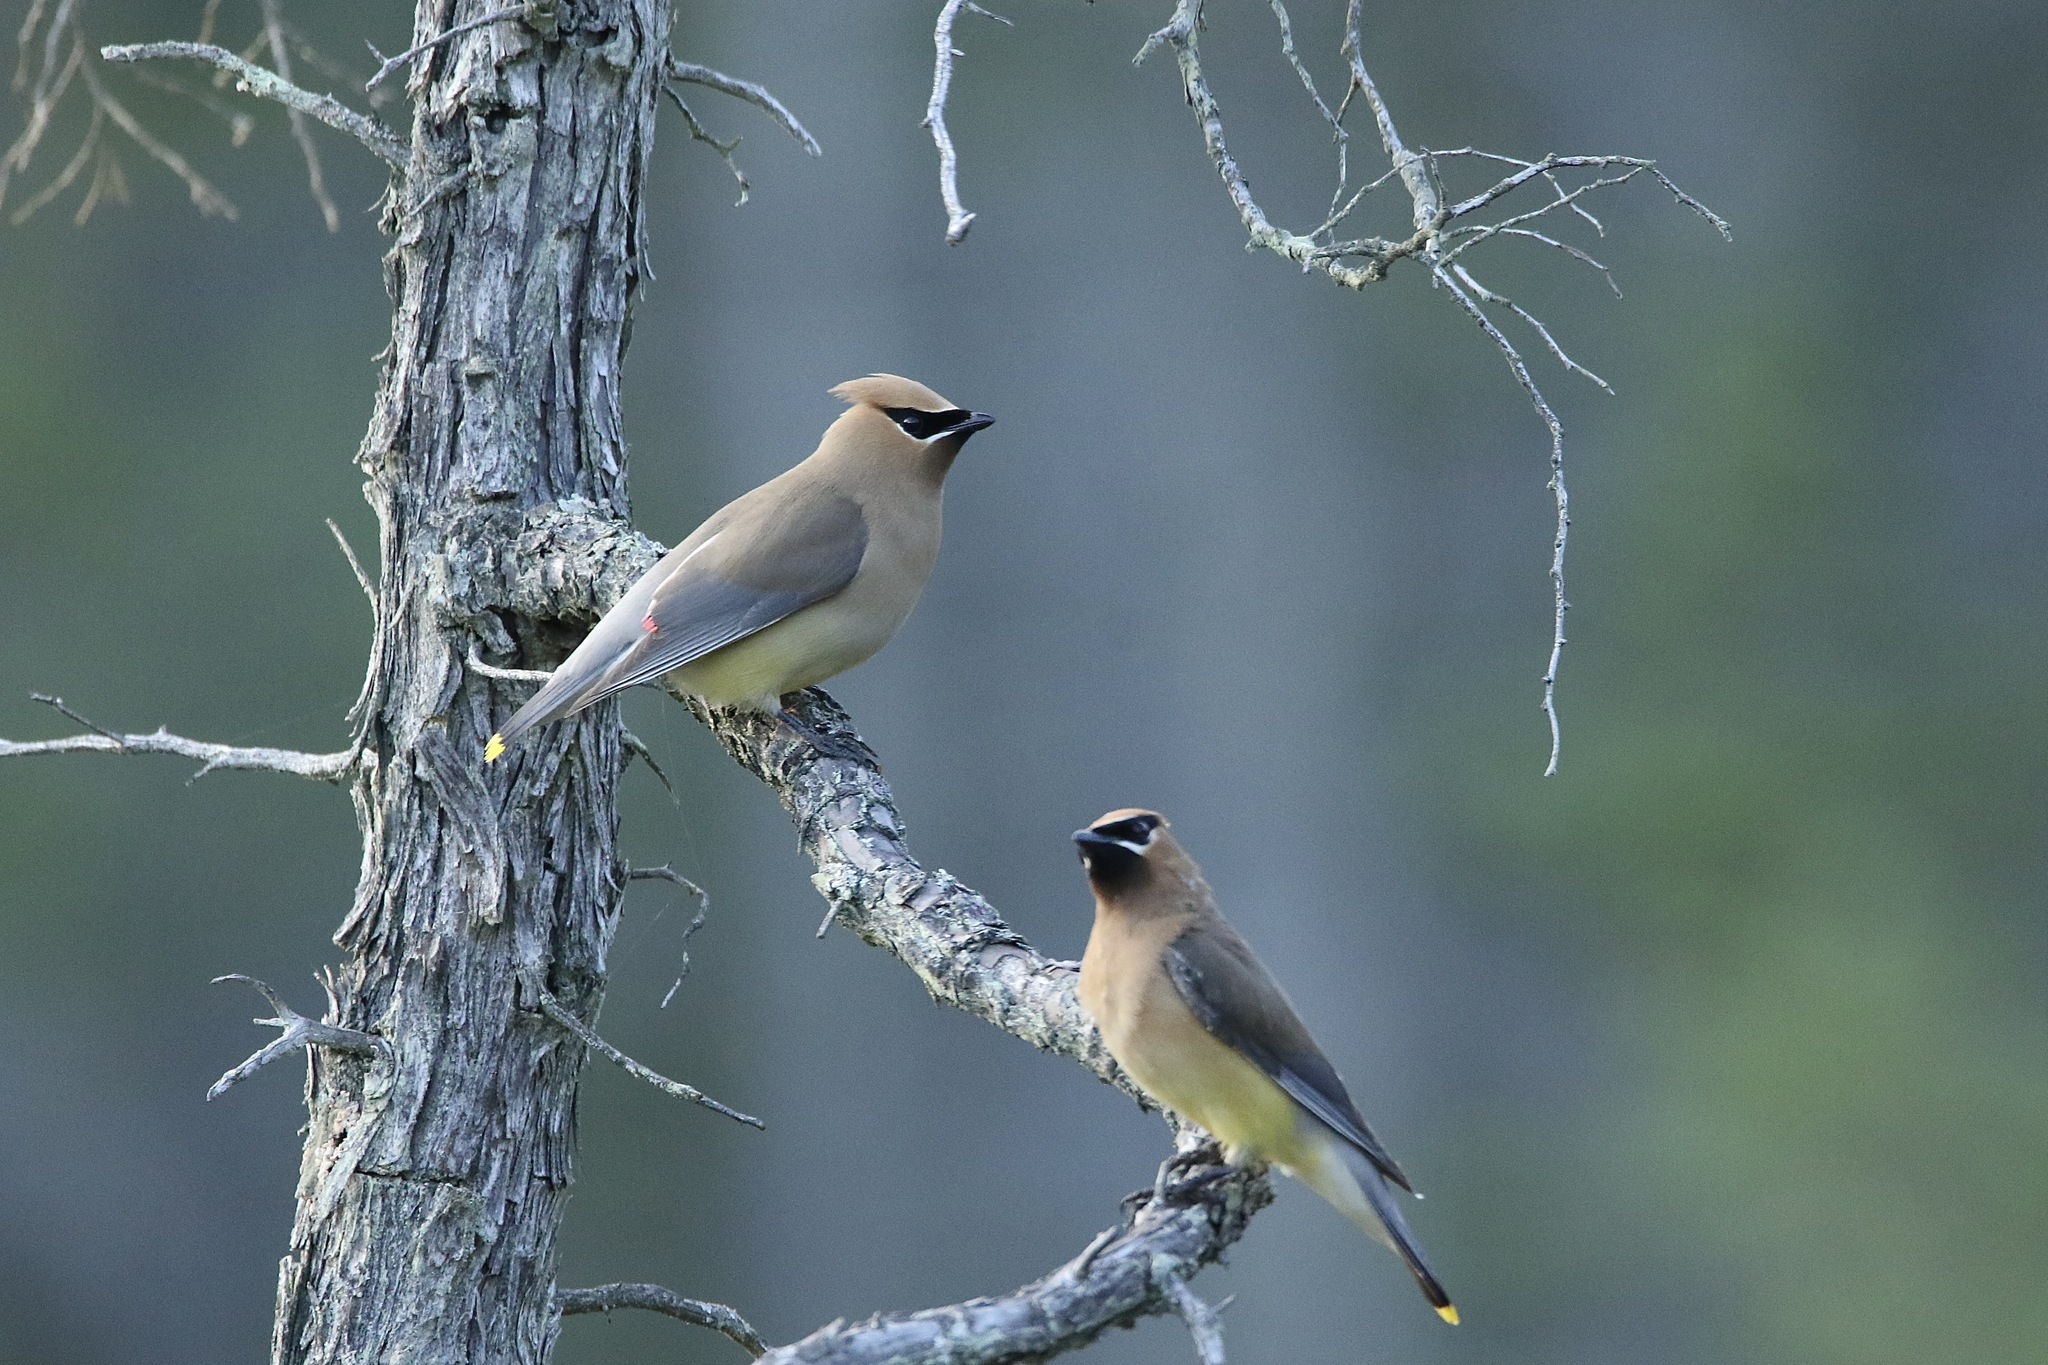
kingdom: Animalia
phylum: Chordata
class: Aves
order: Passeriformes
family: Bombycillidae
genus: Bombycilla
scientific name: Bombycilla cedrorum
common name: Cedar waxwing
